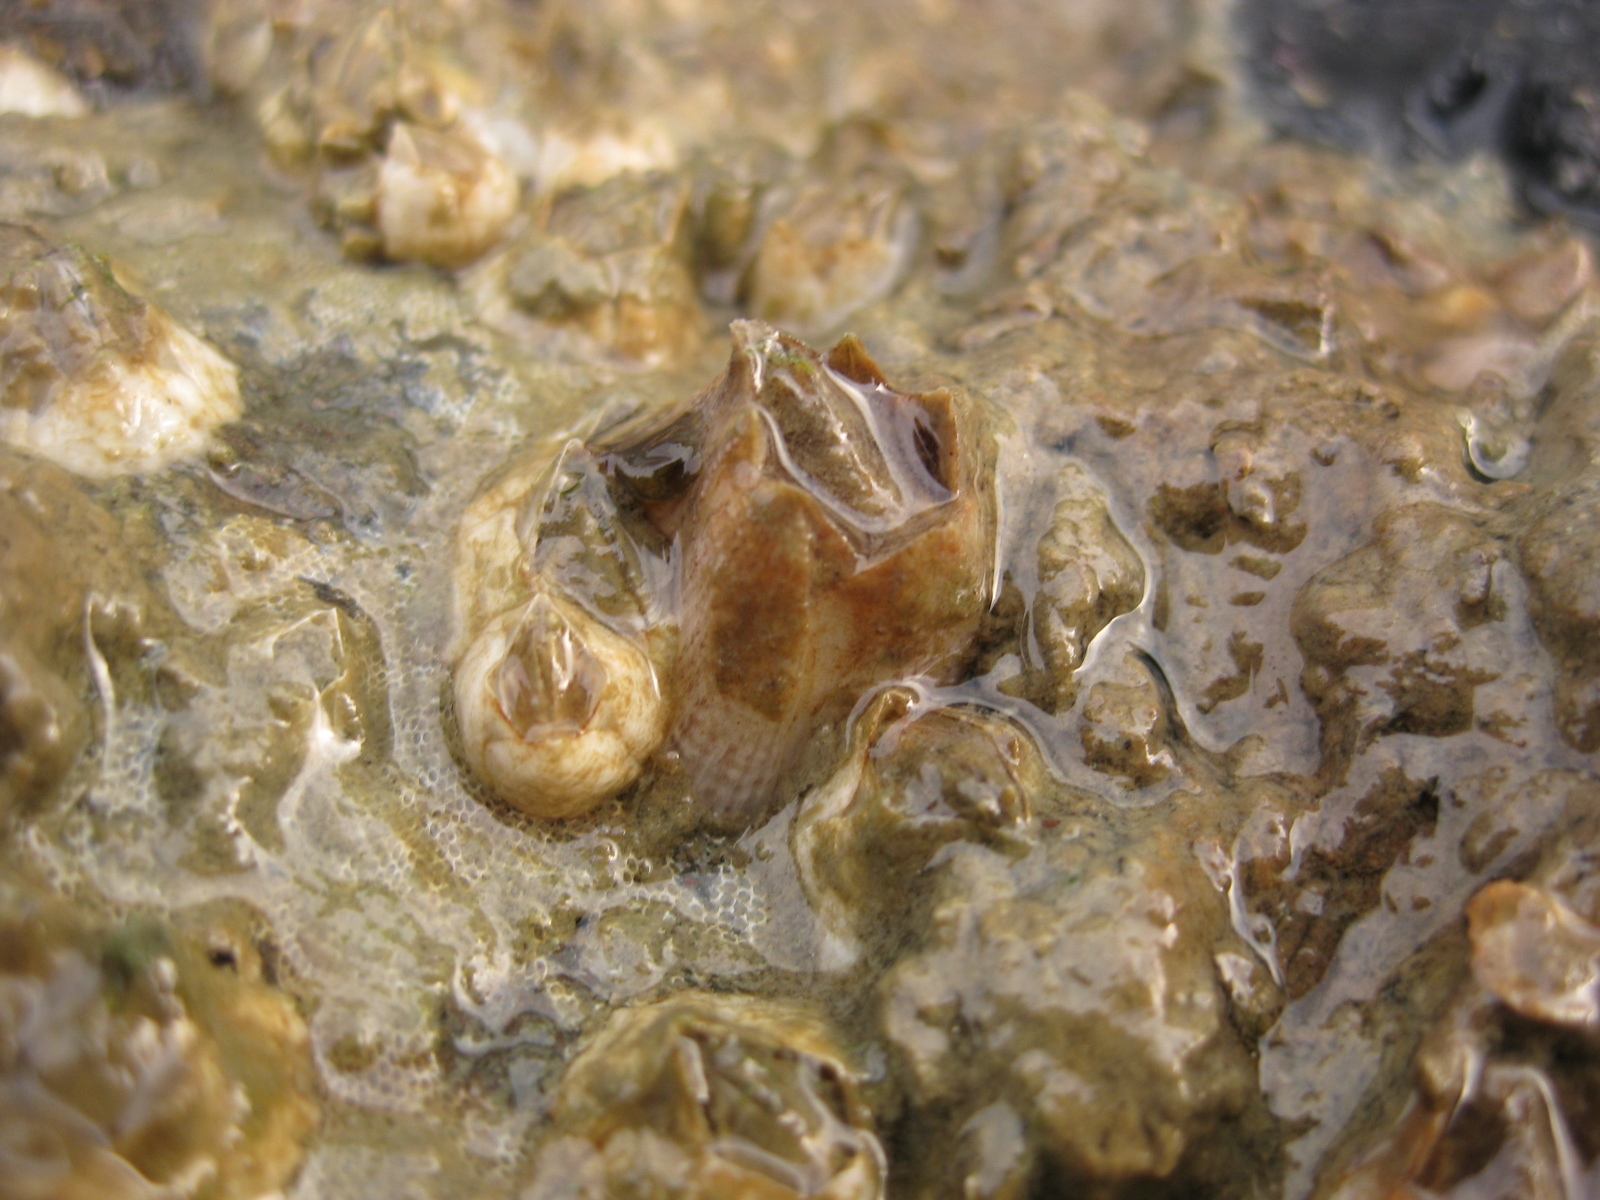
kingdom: Animalia
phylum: Arthropoda
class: Maxillopoda
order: Sessilia
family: Balanidae
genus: Fistulobalanus
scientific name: Fistulobalanus kondakovi
